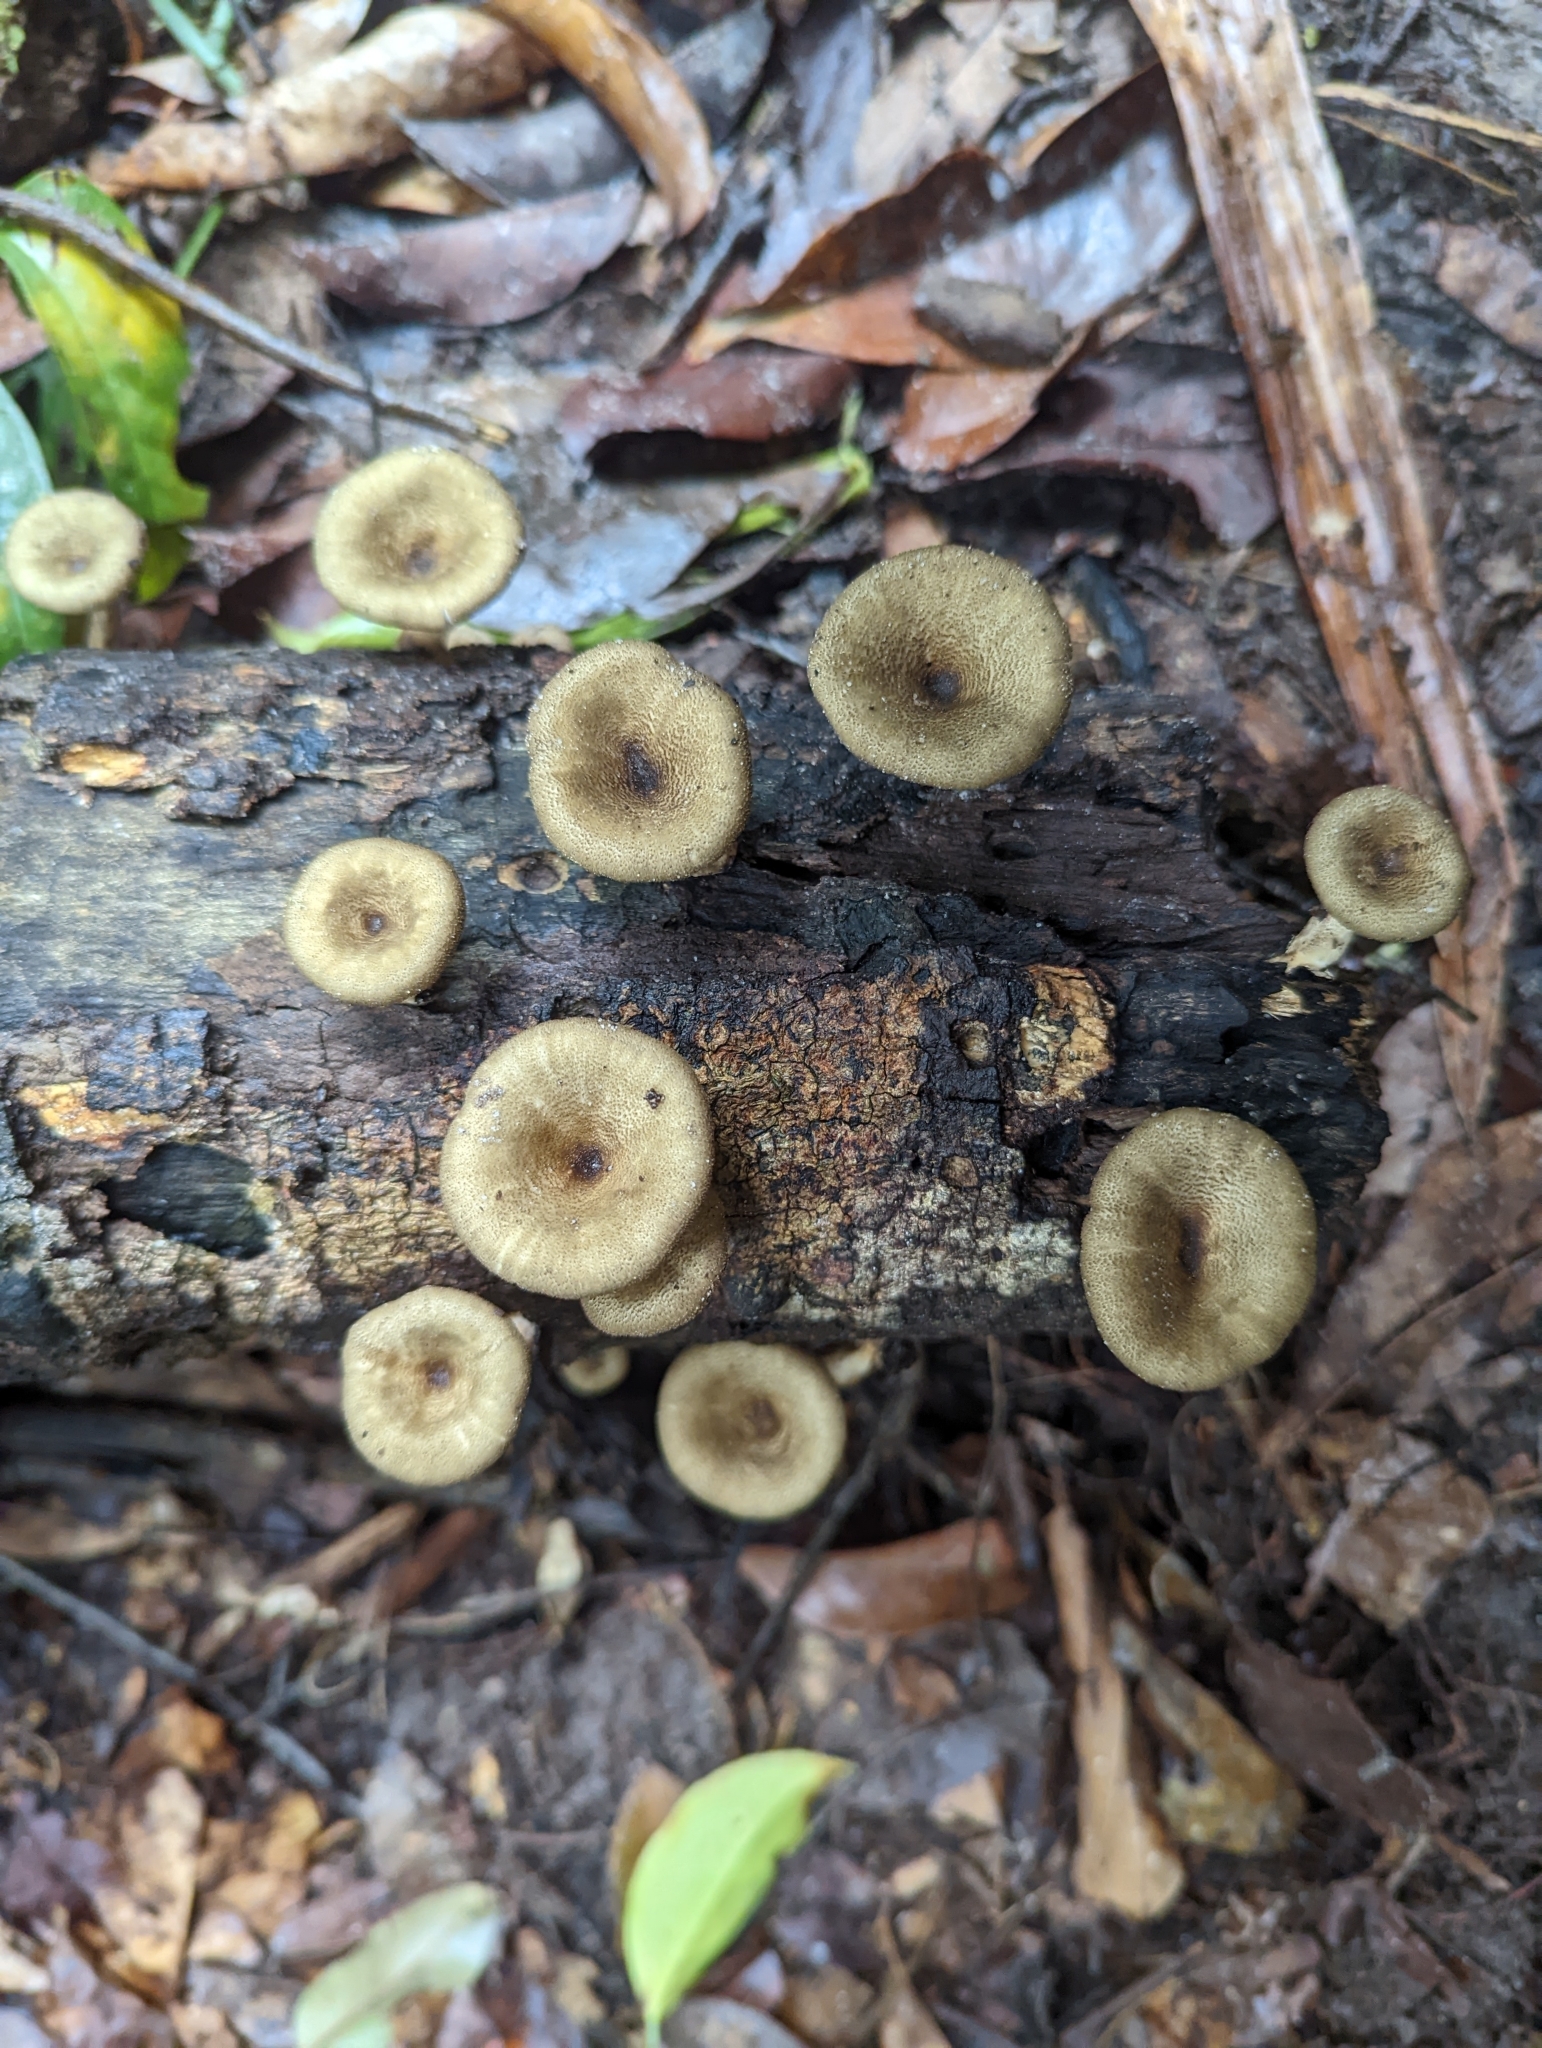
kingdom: Fungi
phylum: Basidiomycota
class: Agaricomycetes
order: Polyporales
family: Polyporaceae
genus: Lentinus
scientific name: Lentinus polychrous
